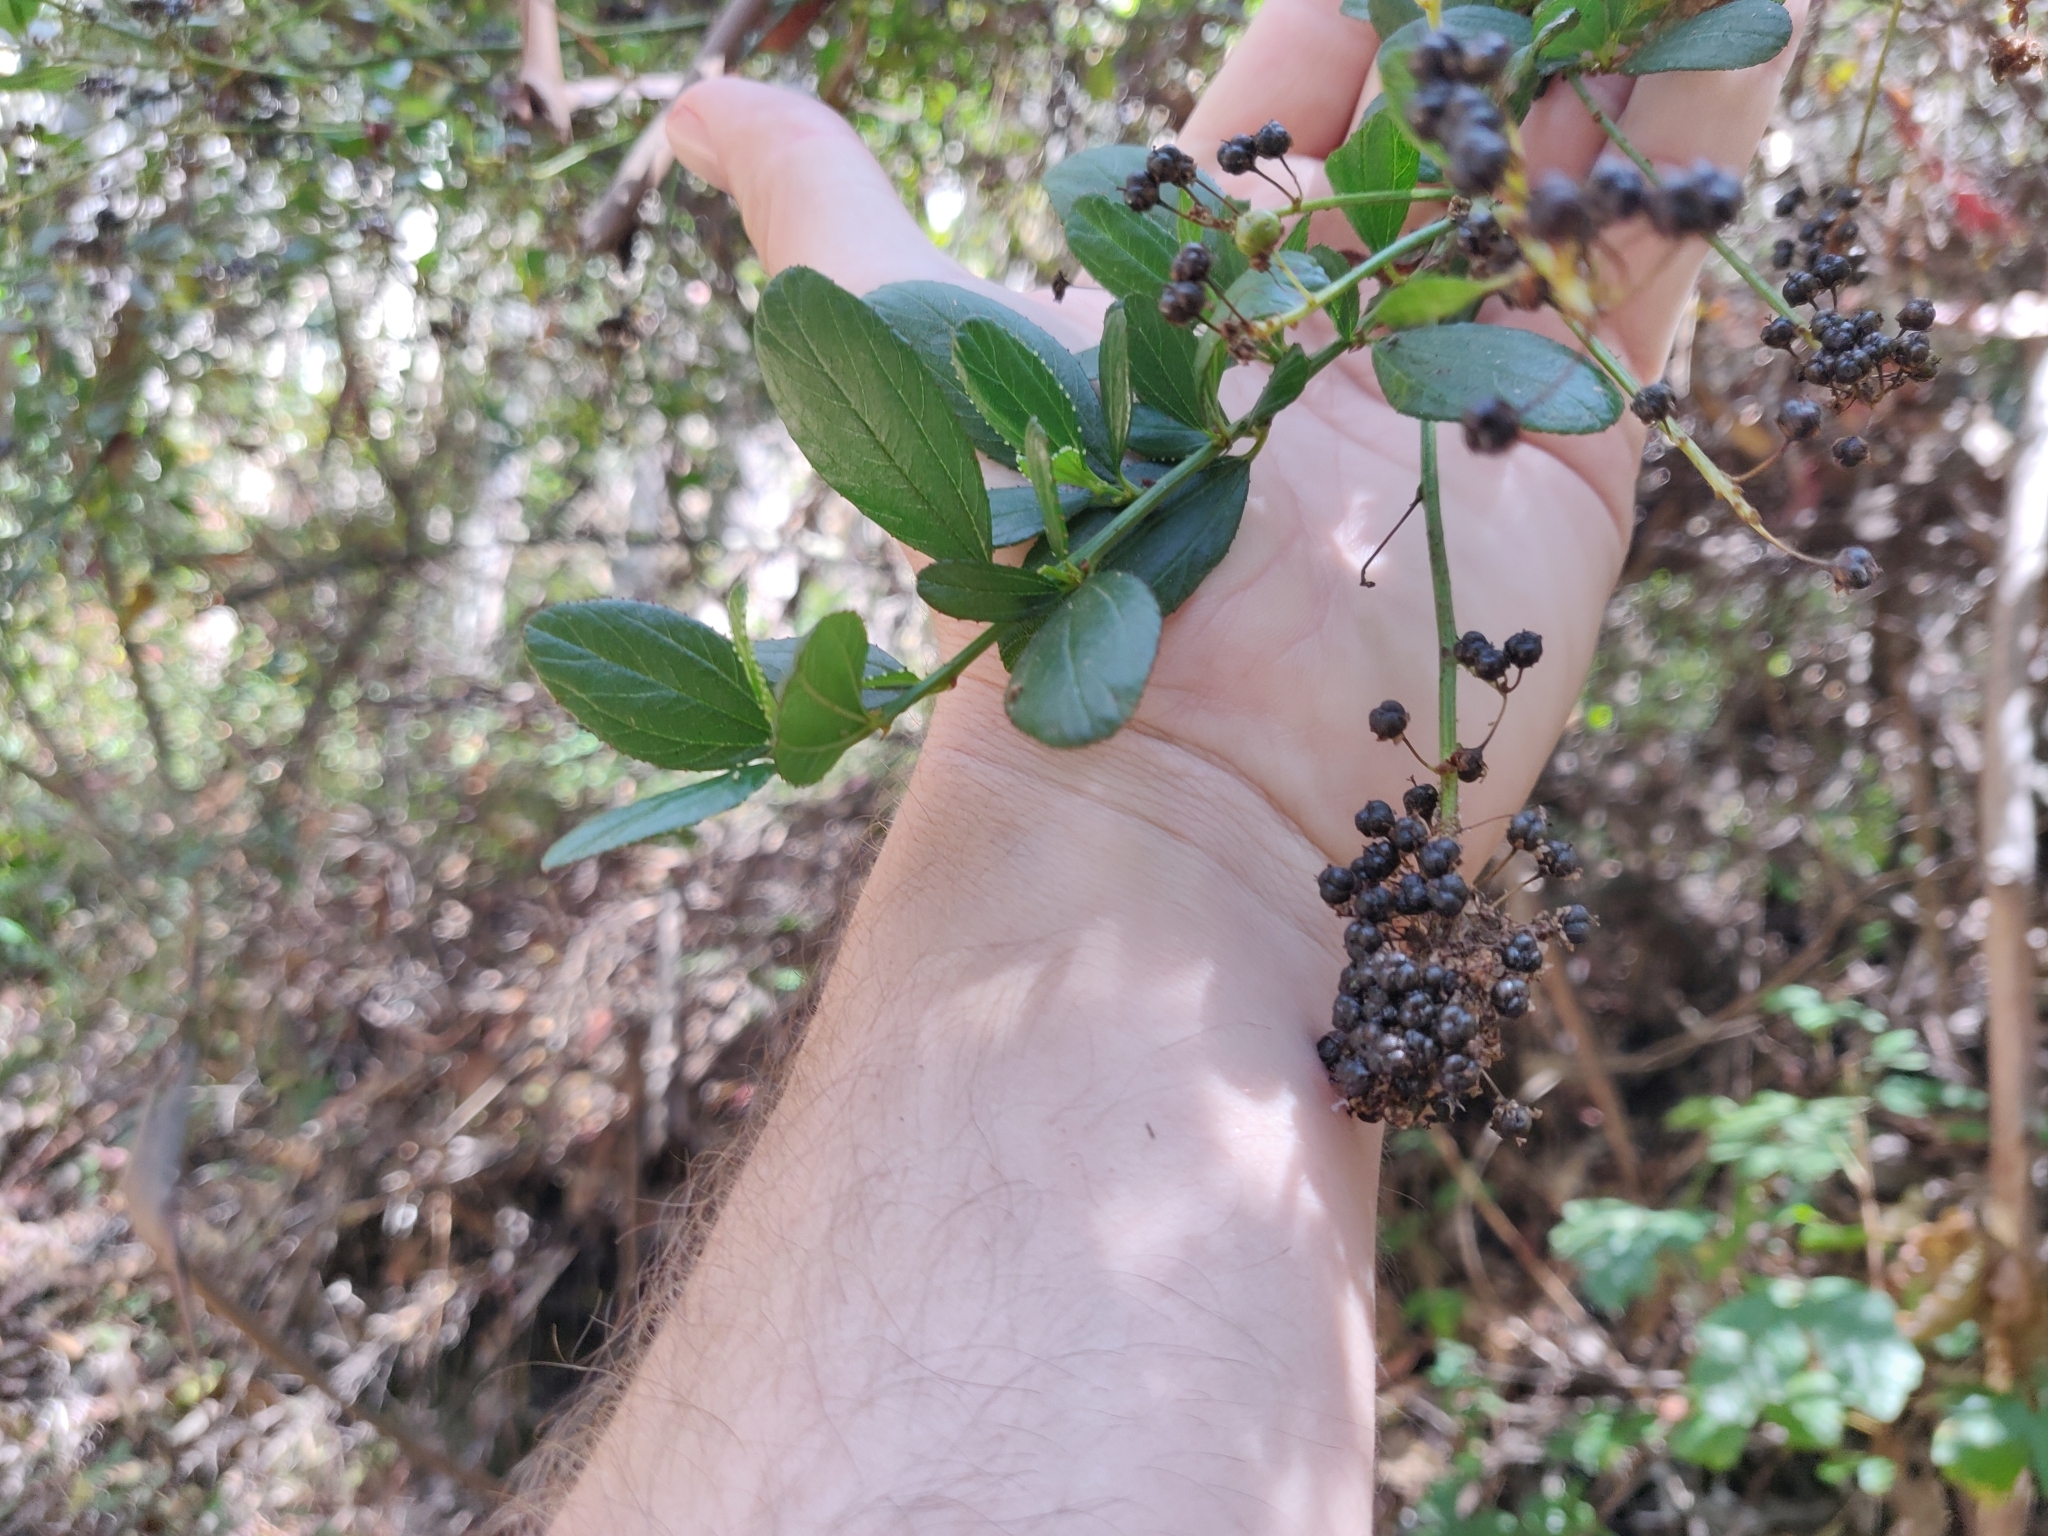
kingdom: Plantae
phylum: Tracheophyta
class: Magnoliopsida
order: Rosales
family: Rhamnaceae
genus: Ceanothus
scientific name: Ceanothus thyrsiflorus
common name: California-lilac
